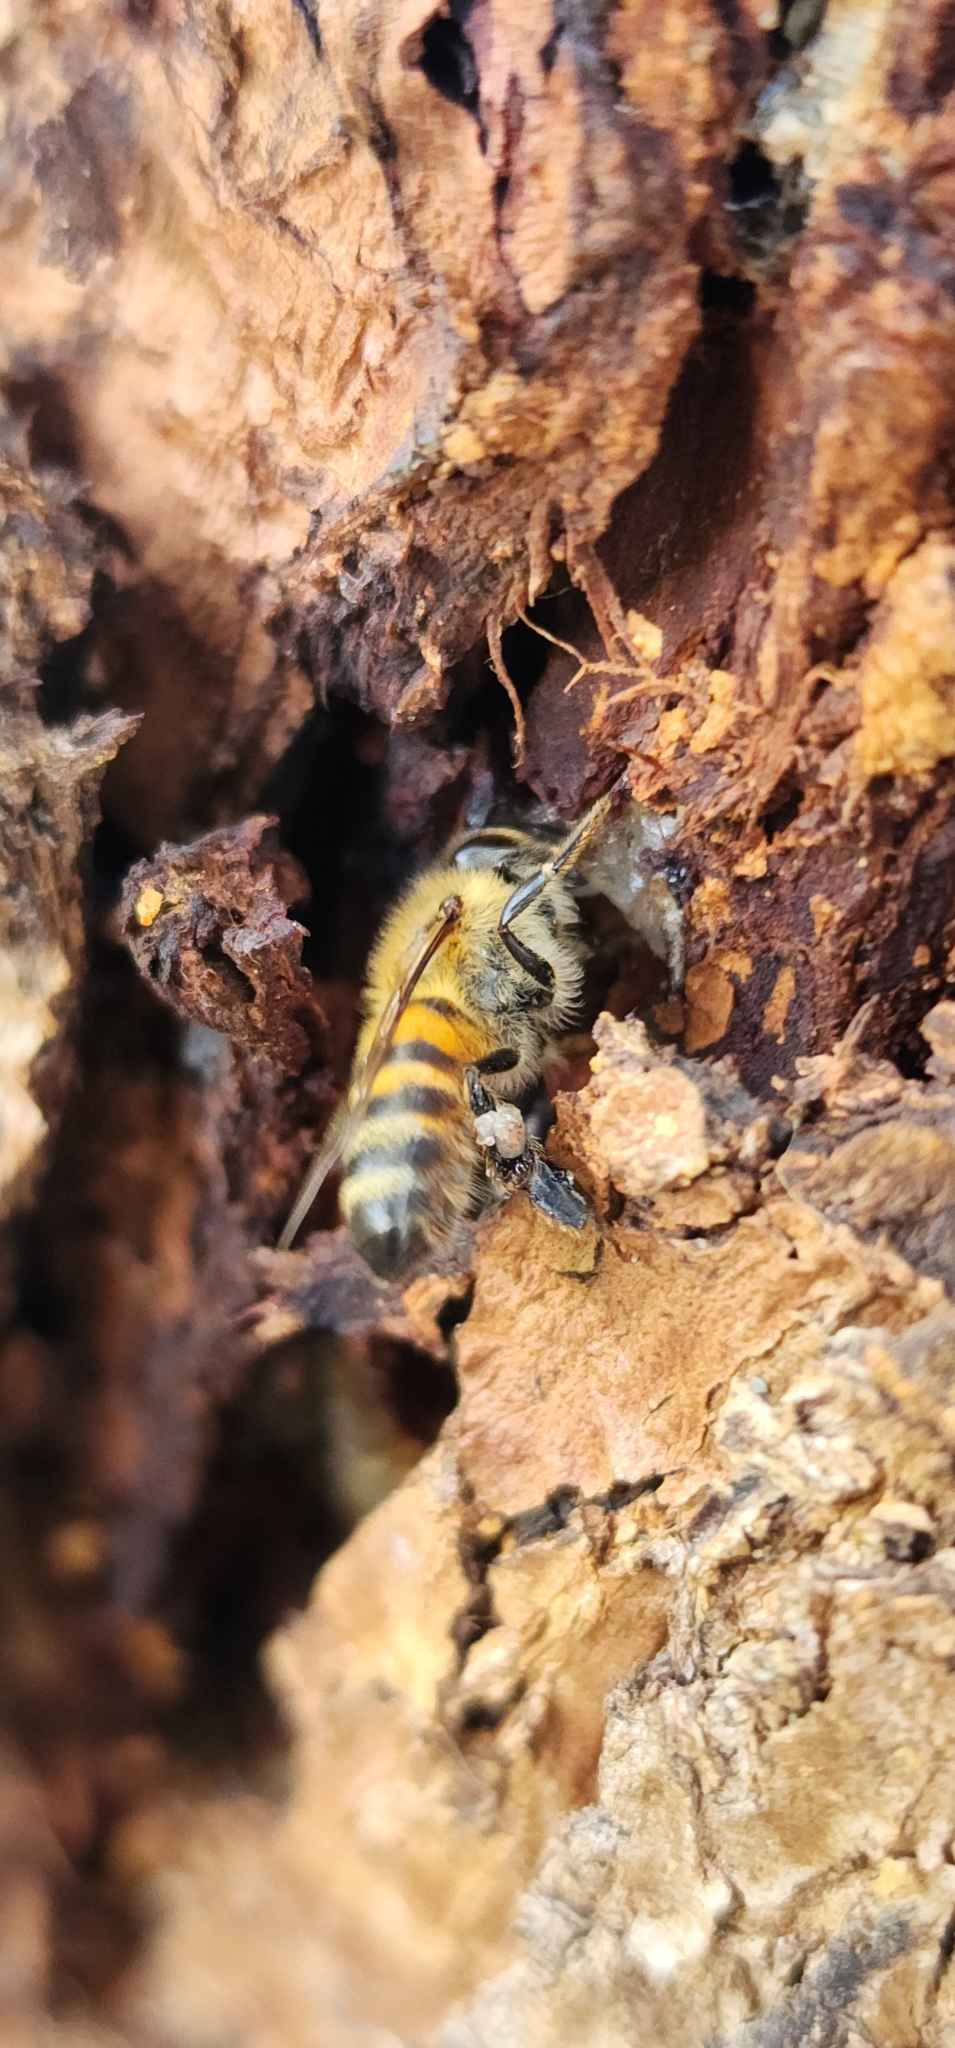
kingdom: Animalia
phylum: Arthropoda
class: Insecta
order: Hymenoptera
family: Apidae
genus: Apis
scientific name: Apis mellifera
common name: Honey bee
